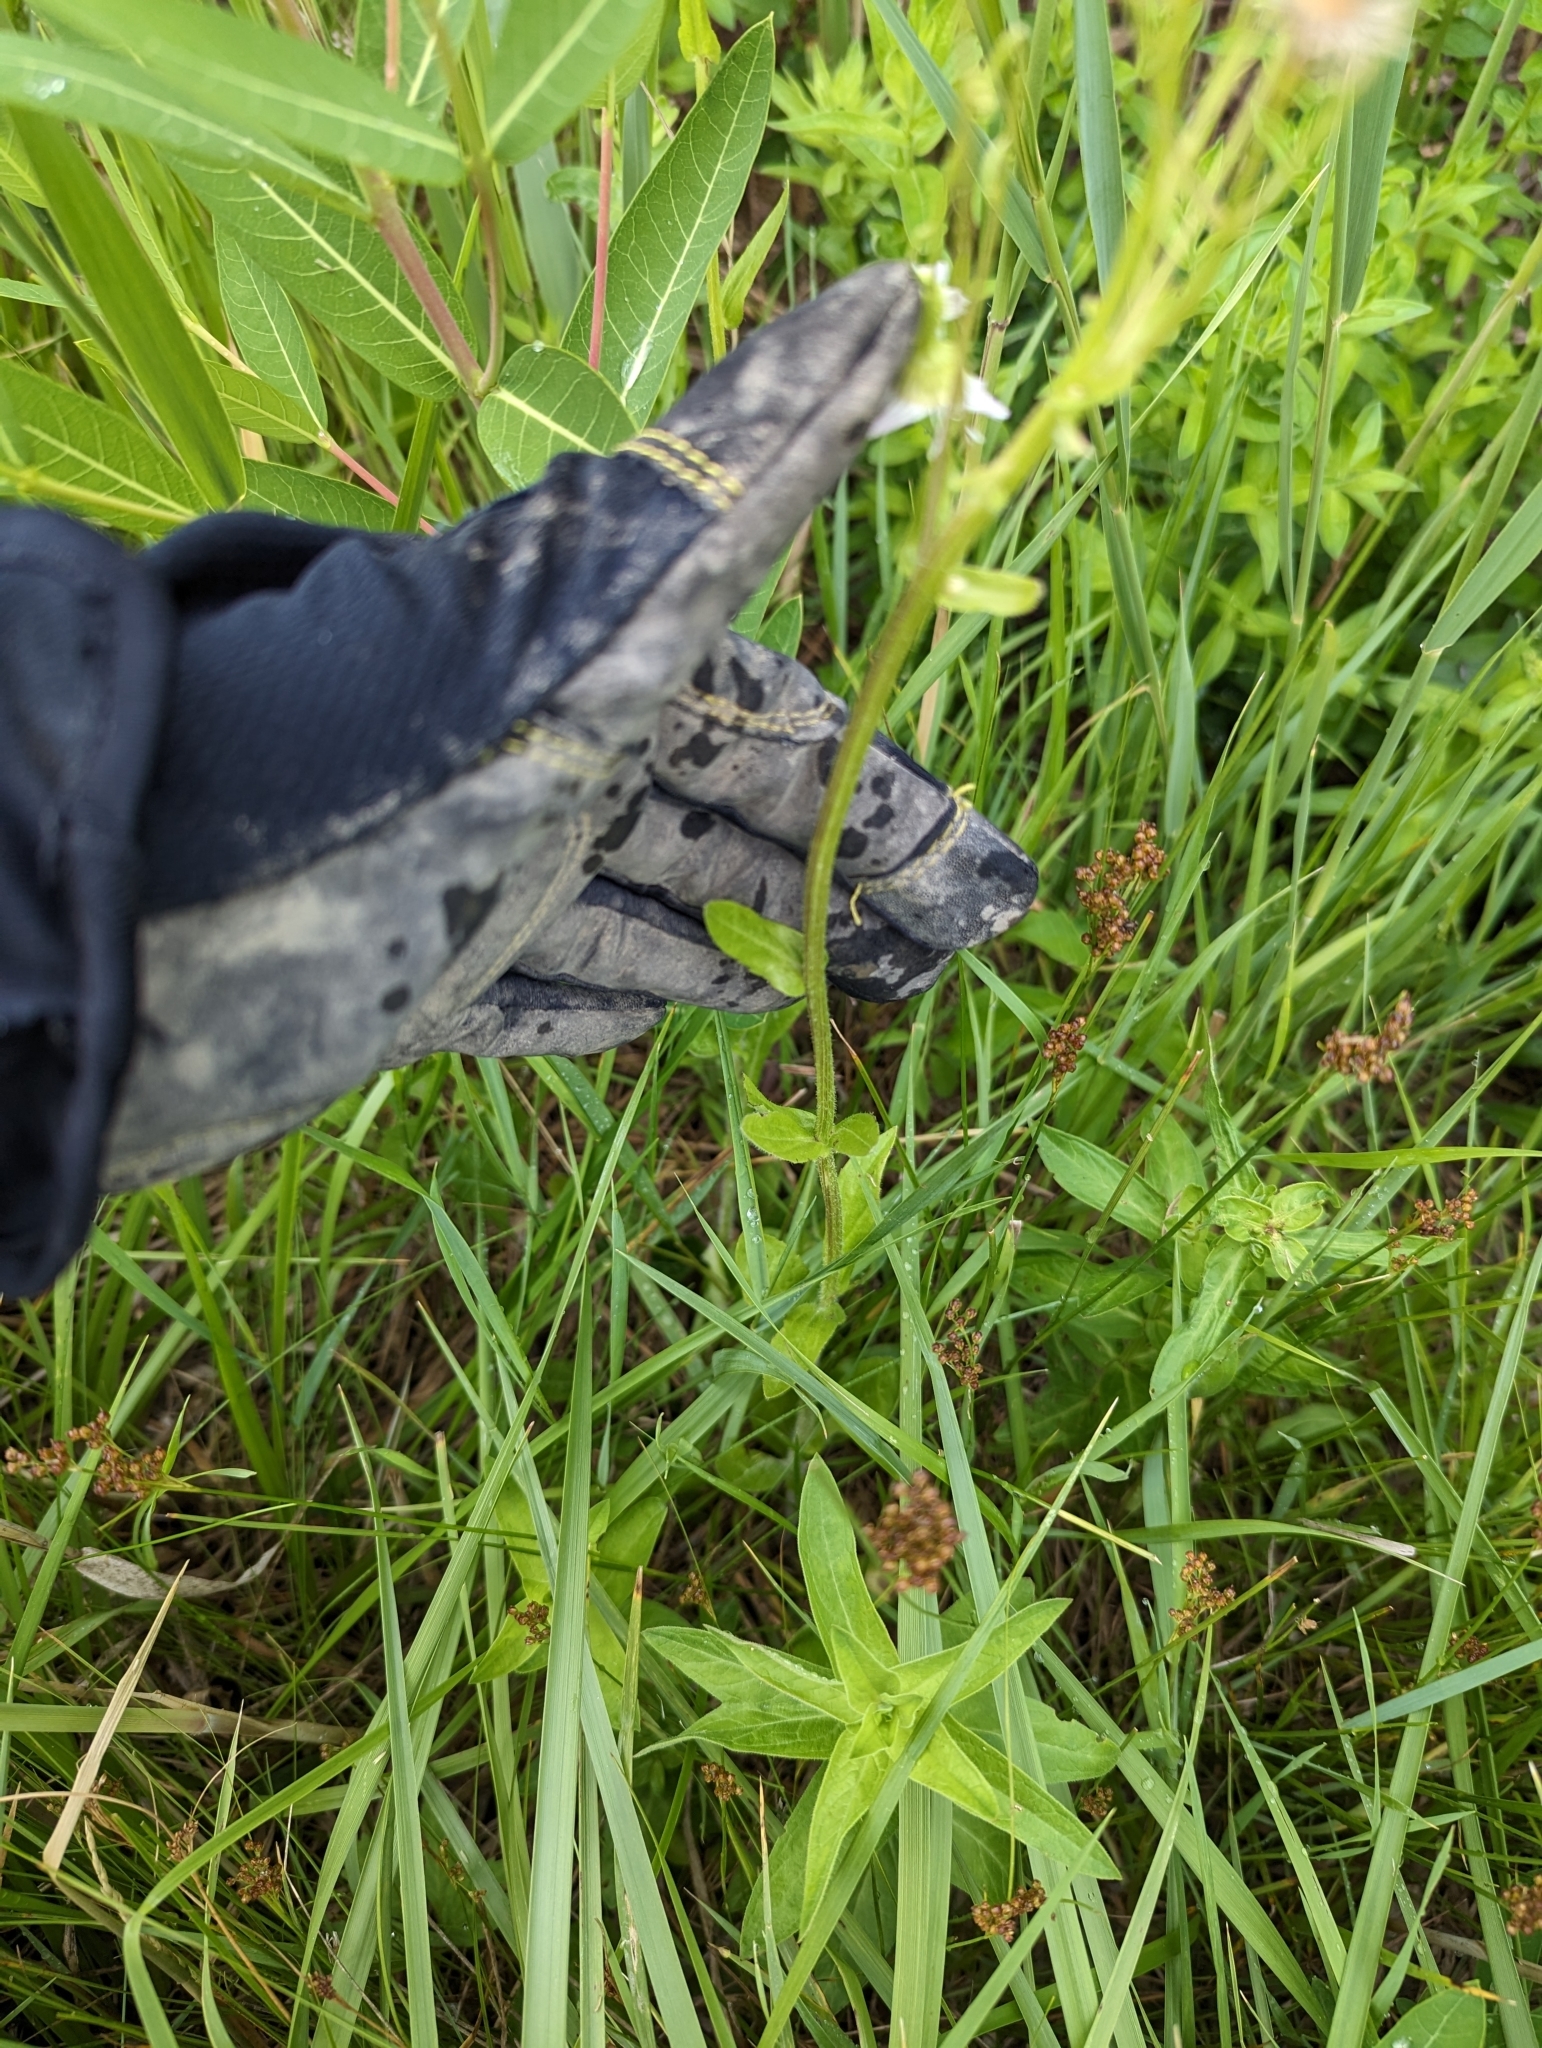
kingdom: Plantae
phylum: Tracheophyta
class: Magnoliopsida
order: Asterales
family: Asteraceae
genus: Erigeron
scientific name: Erigeron strigosus
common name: Common eastern fleabane
